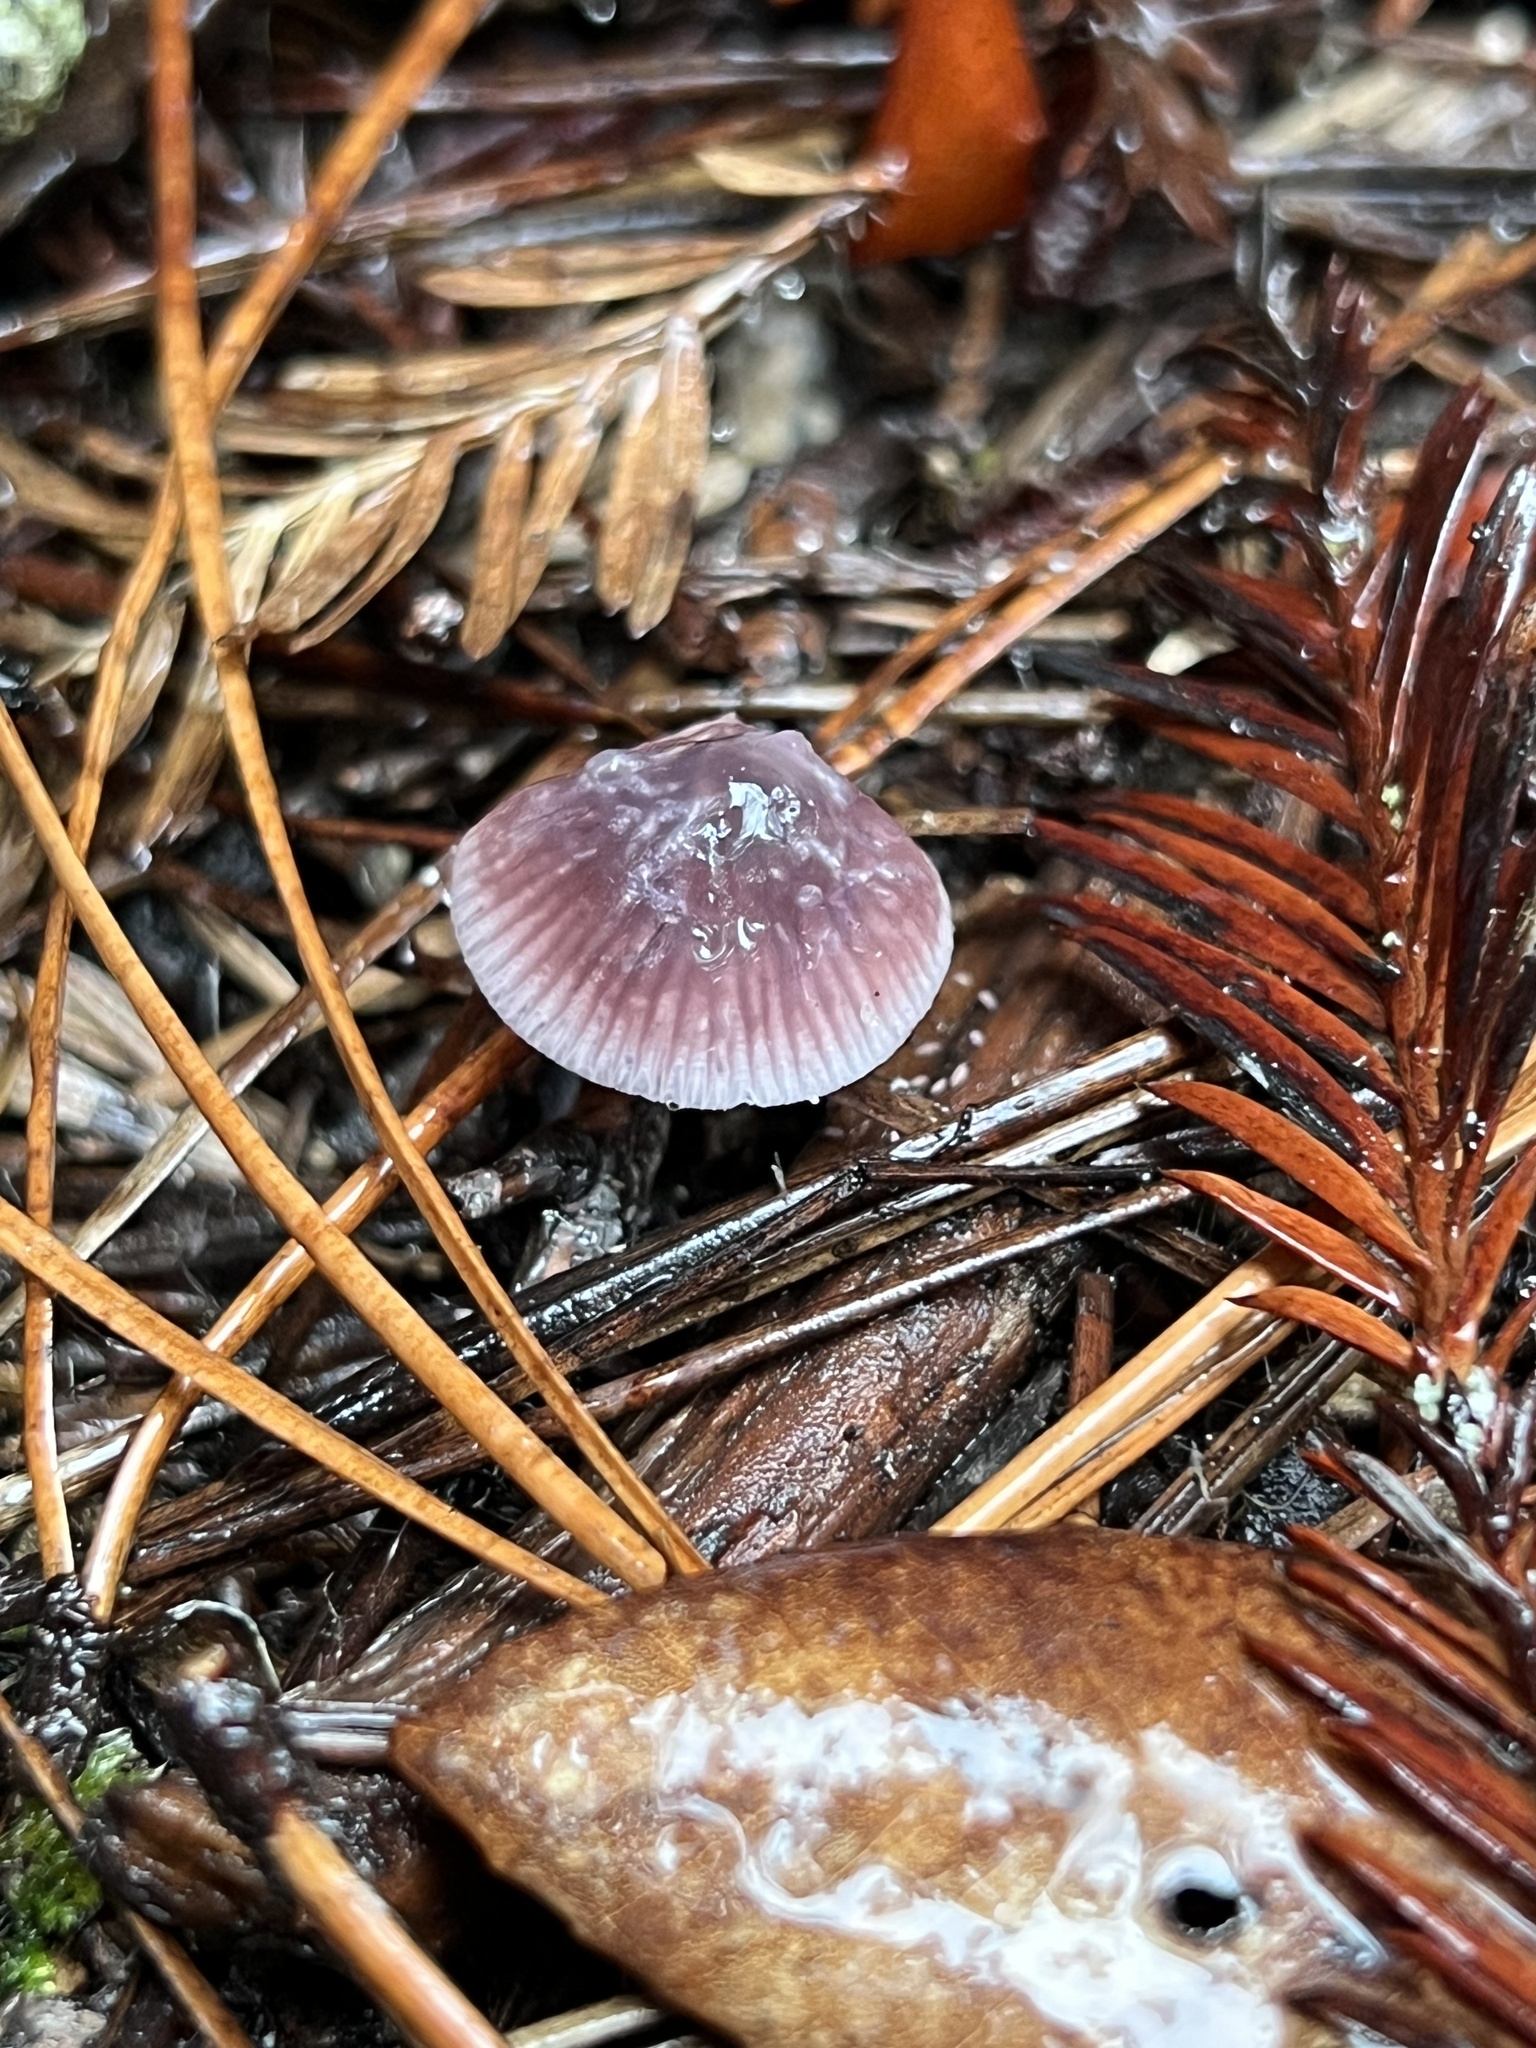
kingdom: Fungi
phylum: Basidiomycota
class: Agaricomycetes
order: Agaricales
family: Mycenaceae
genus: Mycena
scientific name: Mycena pura
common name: Lilac bonnet
